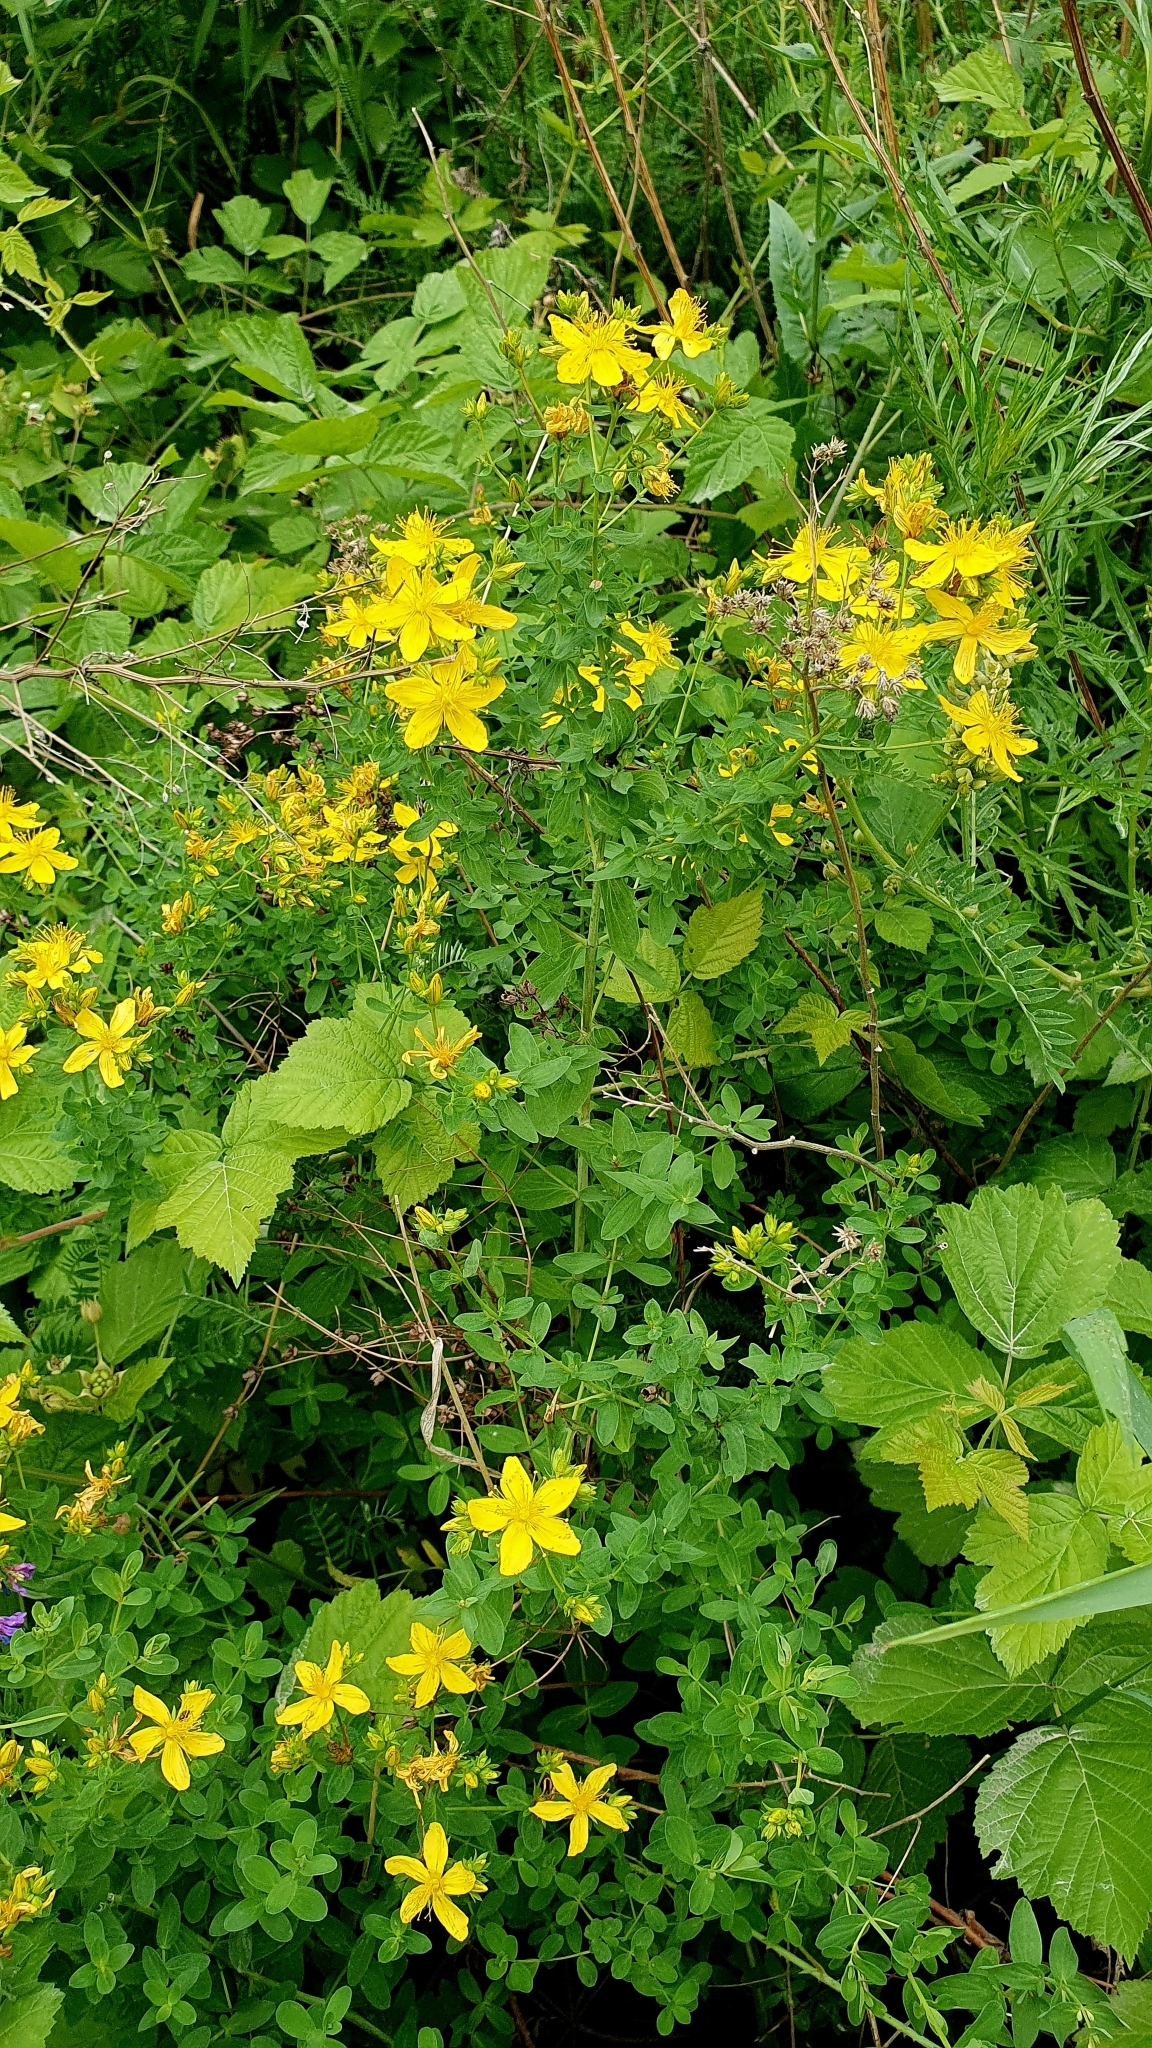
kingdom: Plantae
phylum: Tracheophyta
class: Magnoliopsida
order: Malpighiales
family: Hypericaceae
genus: Hypericum
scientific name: Hypericum perforatum
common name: Common st. johnswort
